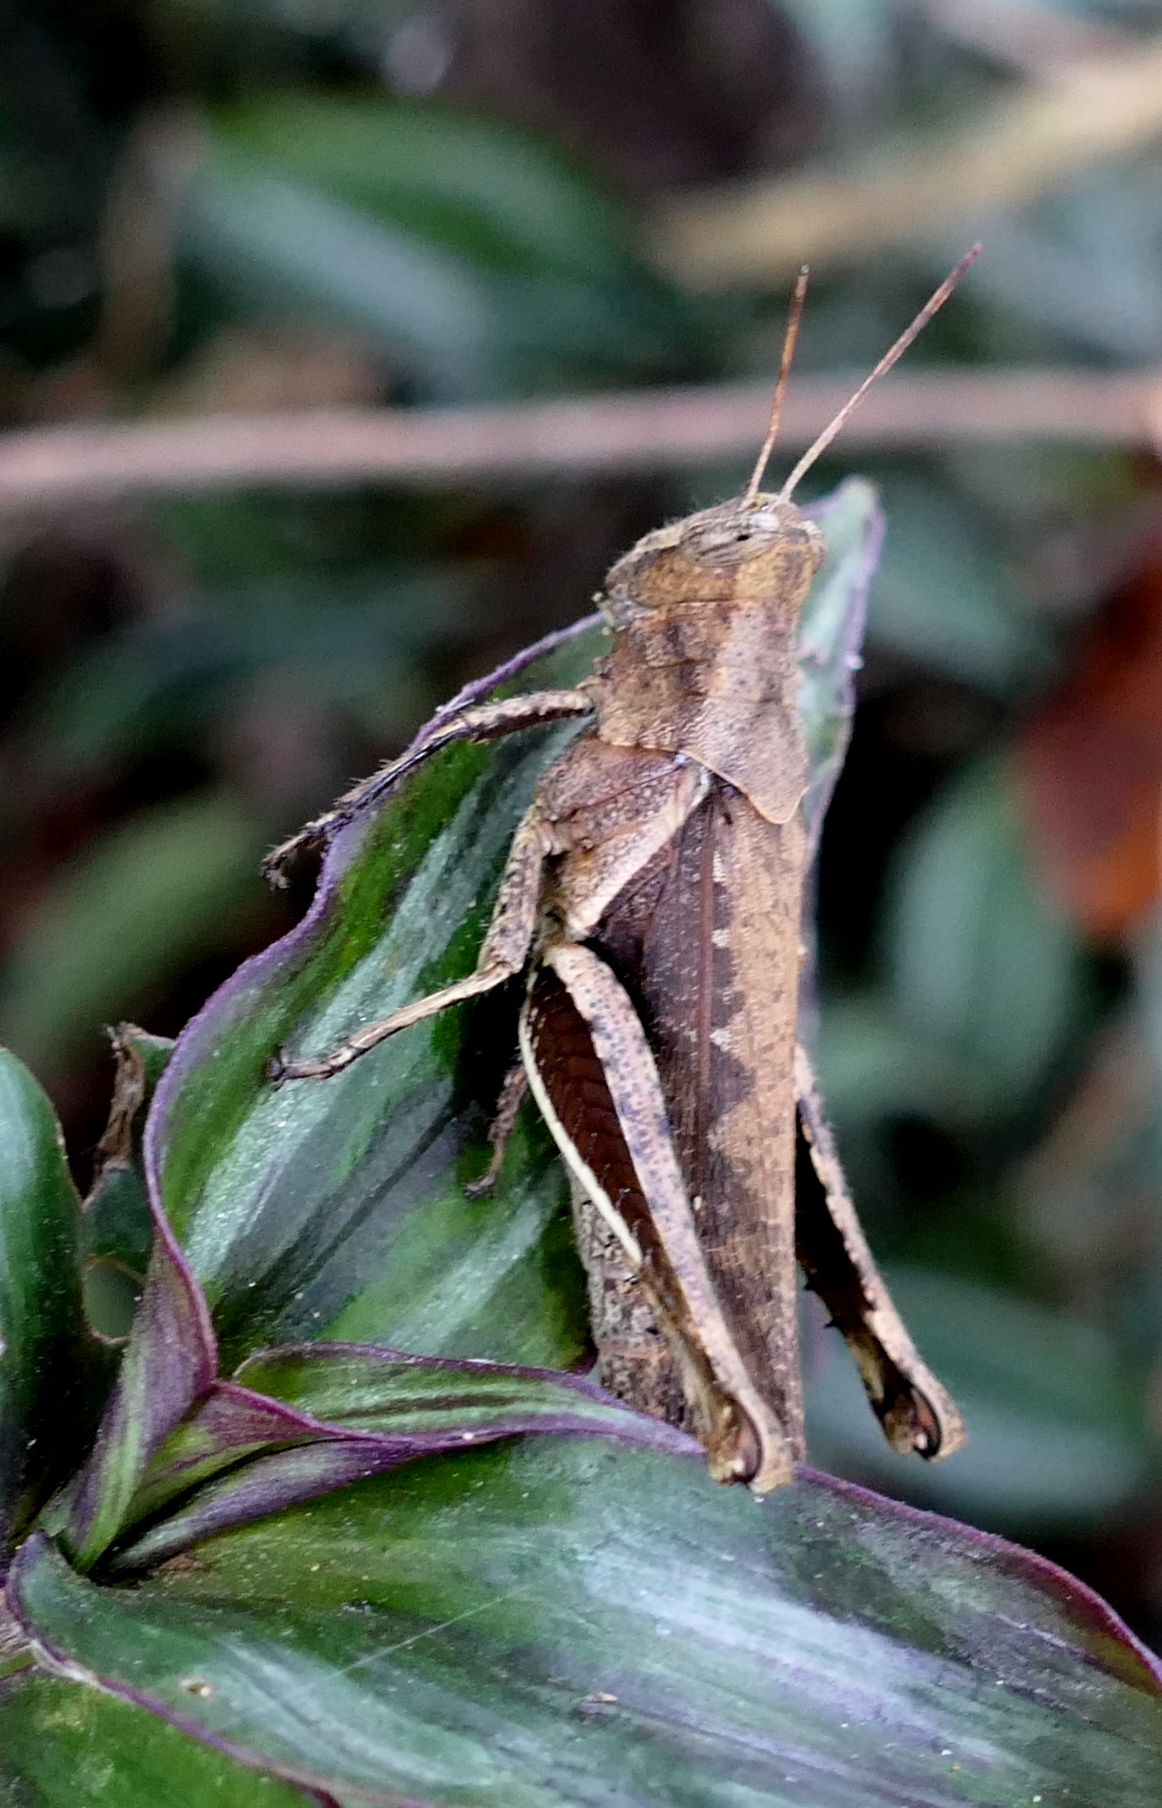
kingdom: Animalia
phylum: Arthropoda
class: Insecta
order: Orthoptera
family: Acrididae
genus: Abracris
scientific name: Abracris flavolineata
